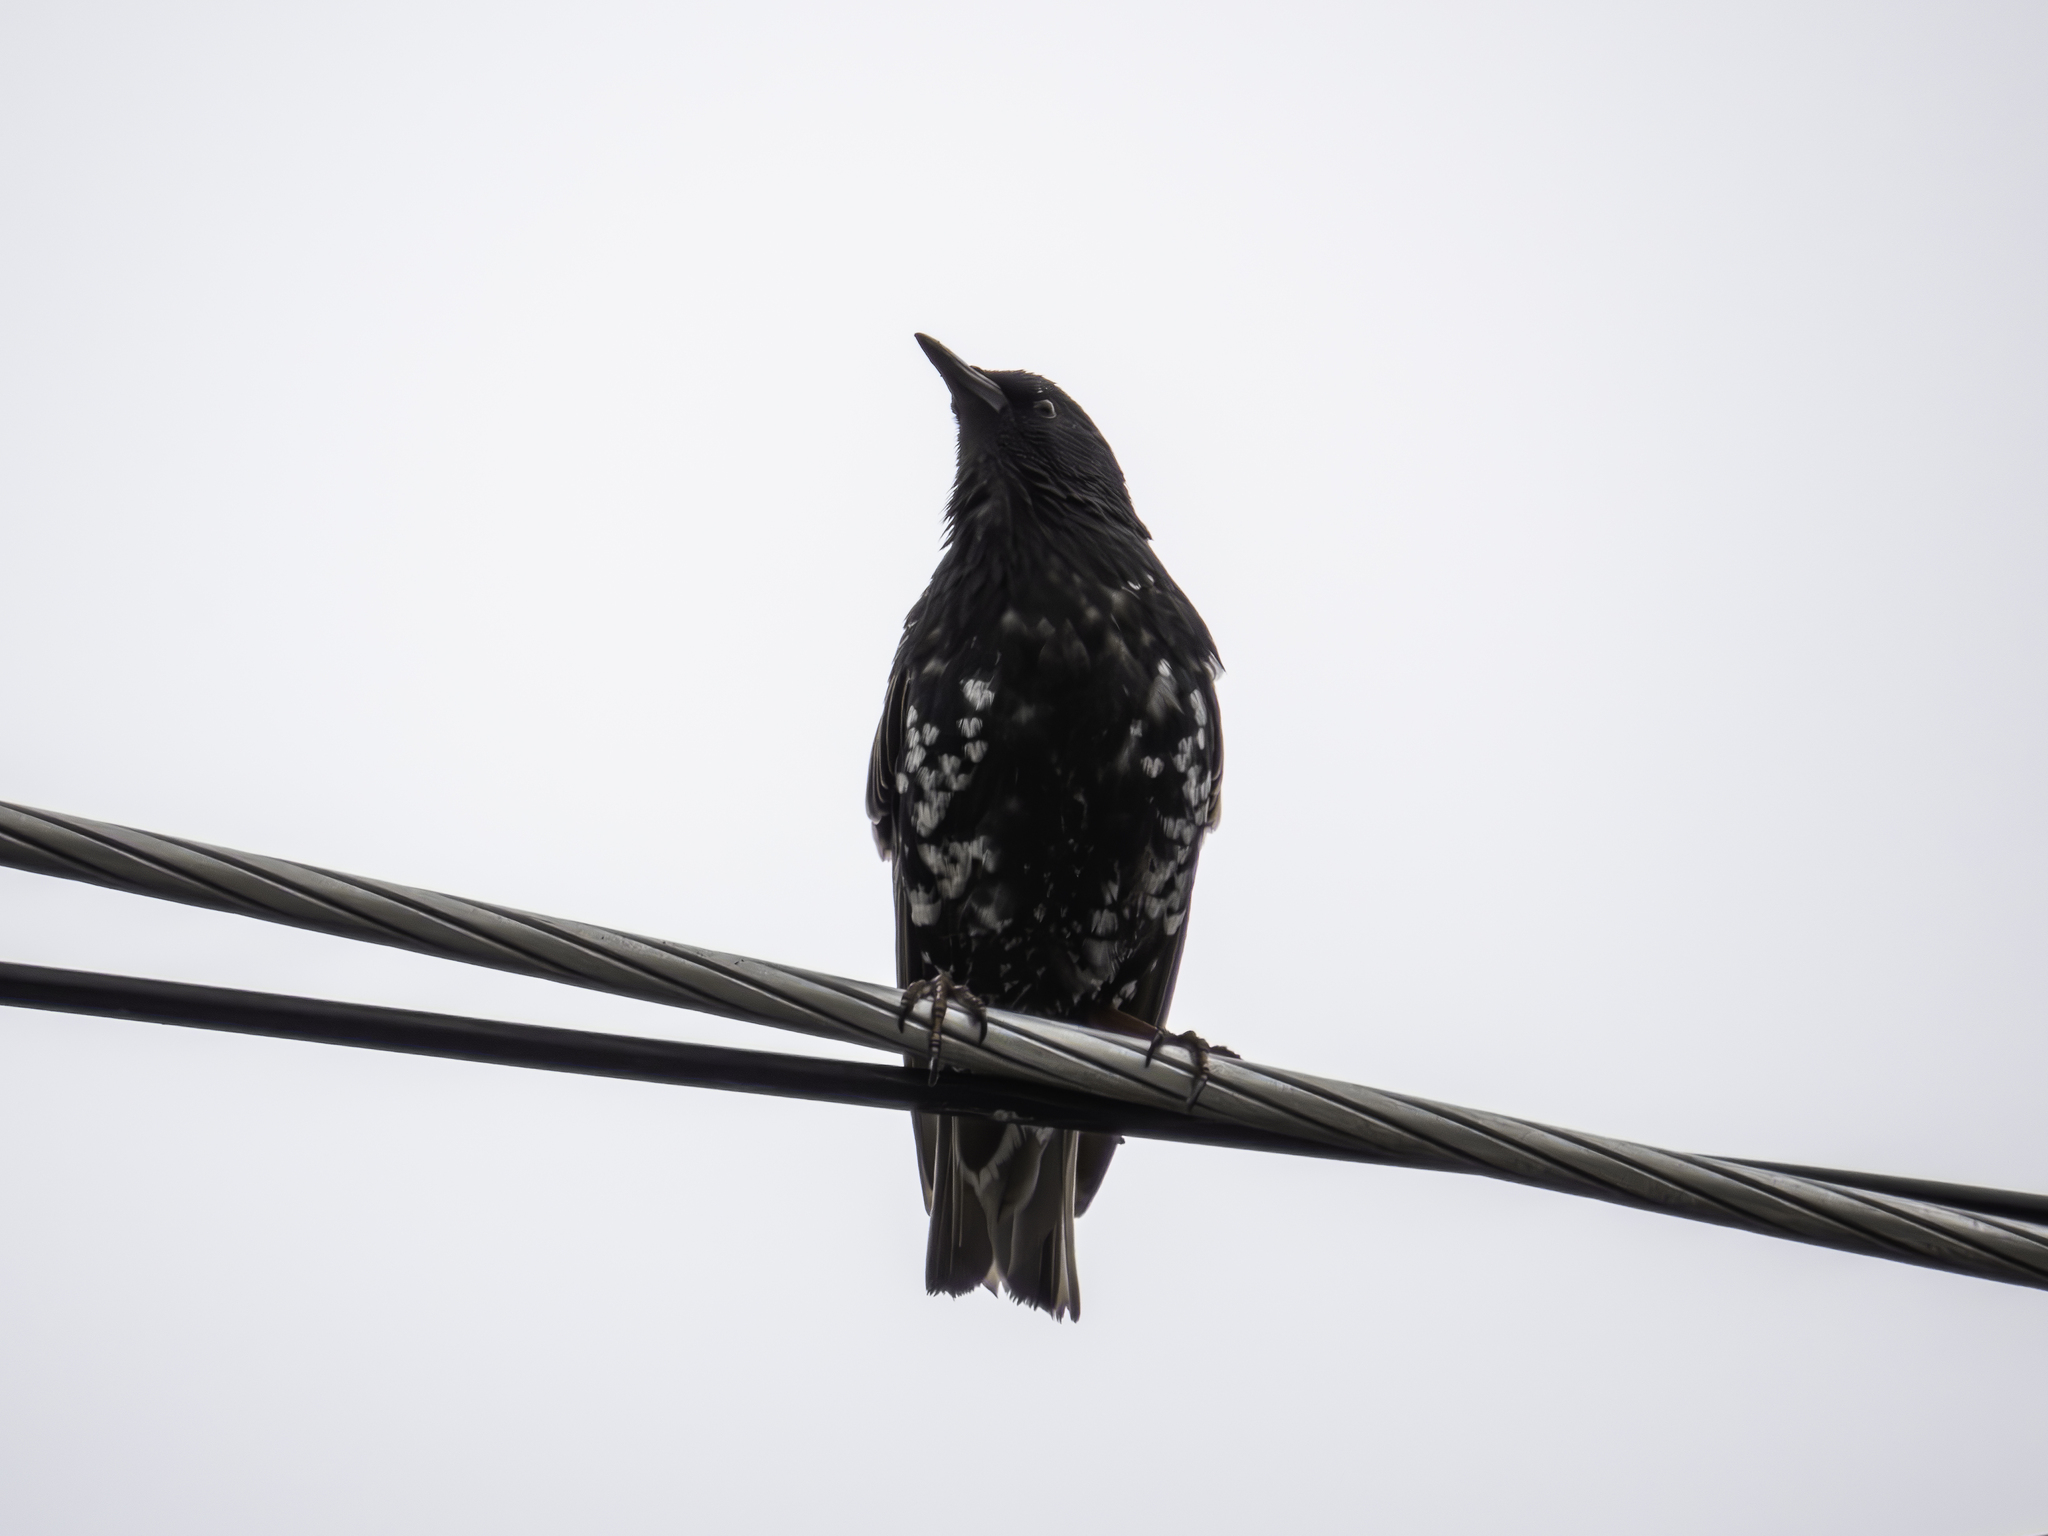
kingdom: Animalia
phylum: Chordata
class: Aves
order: Passeriformes
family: Sturnidae
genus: Sturnus
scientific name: Sturnus vulgaris
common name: Common starling
